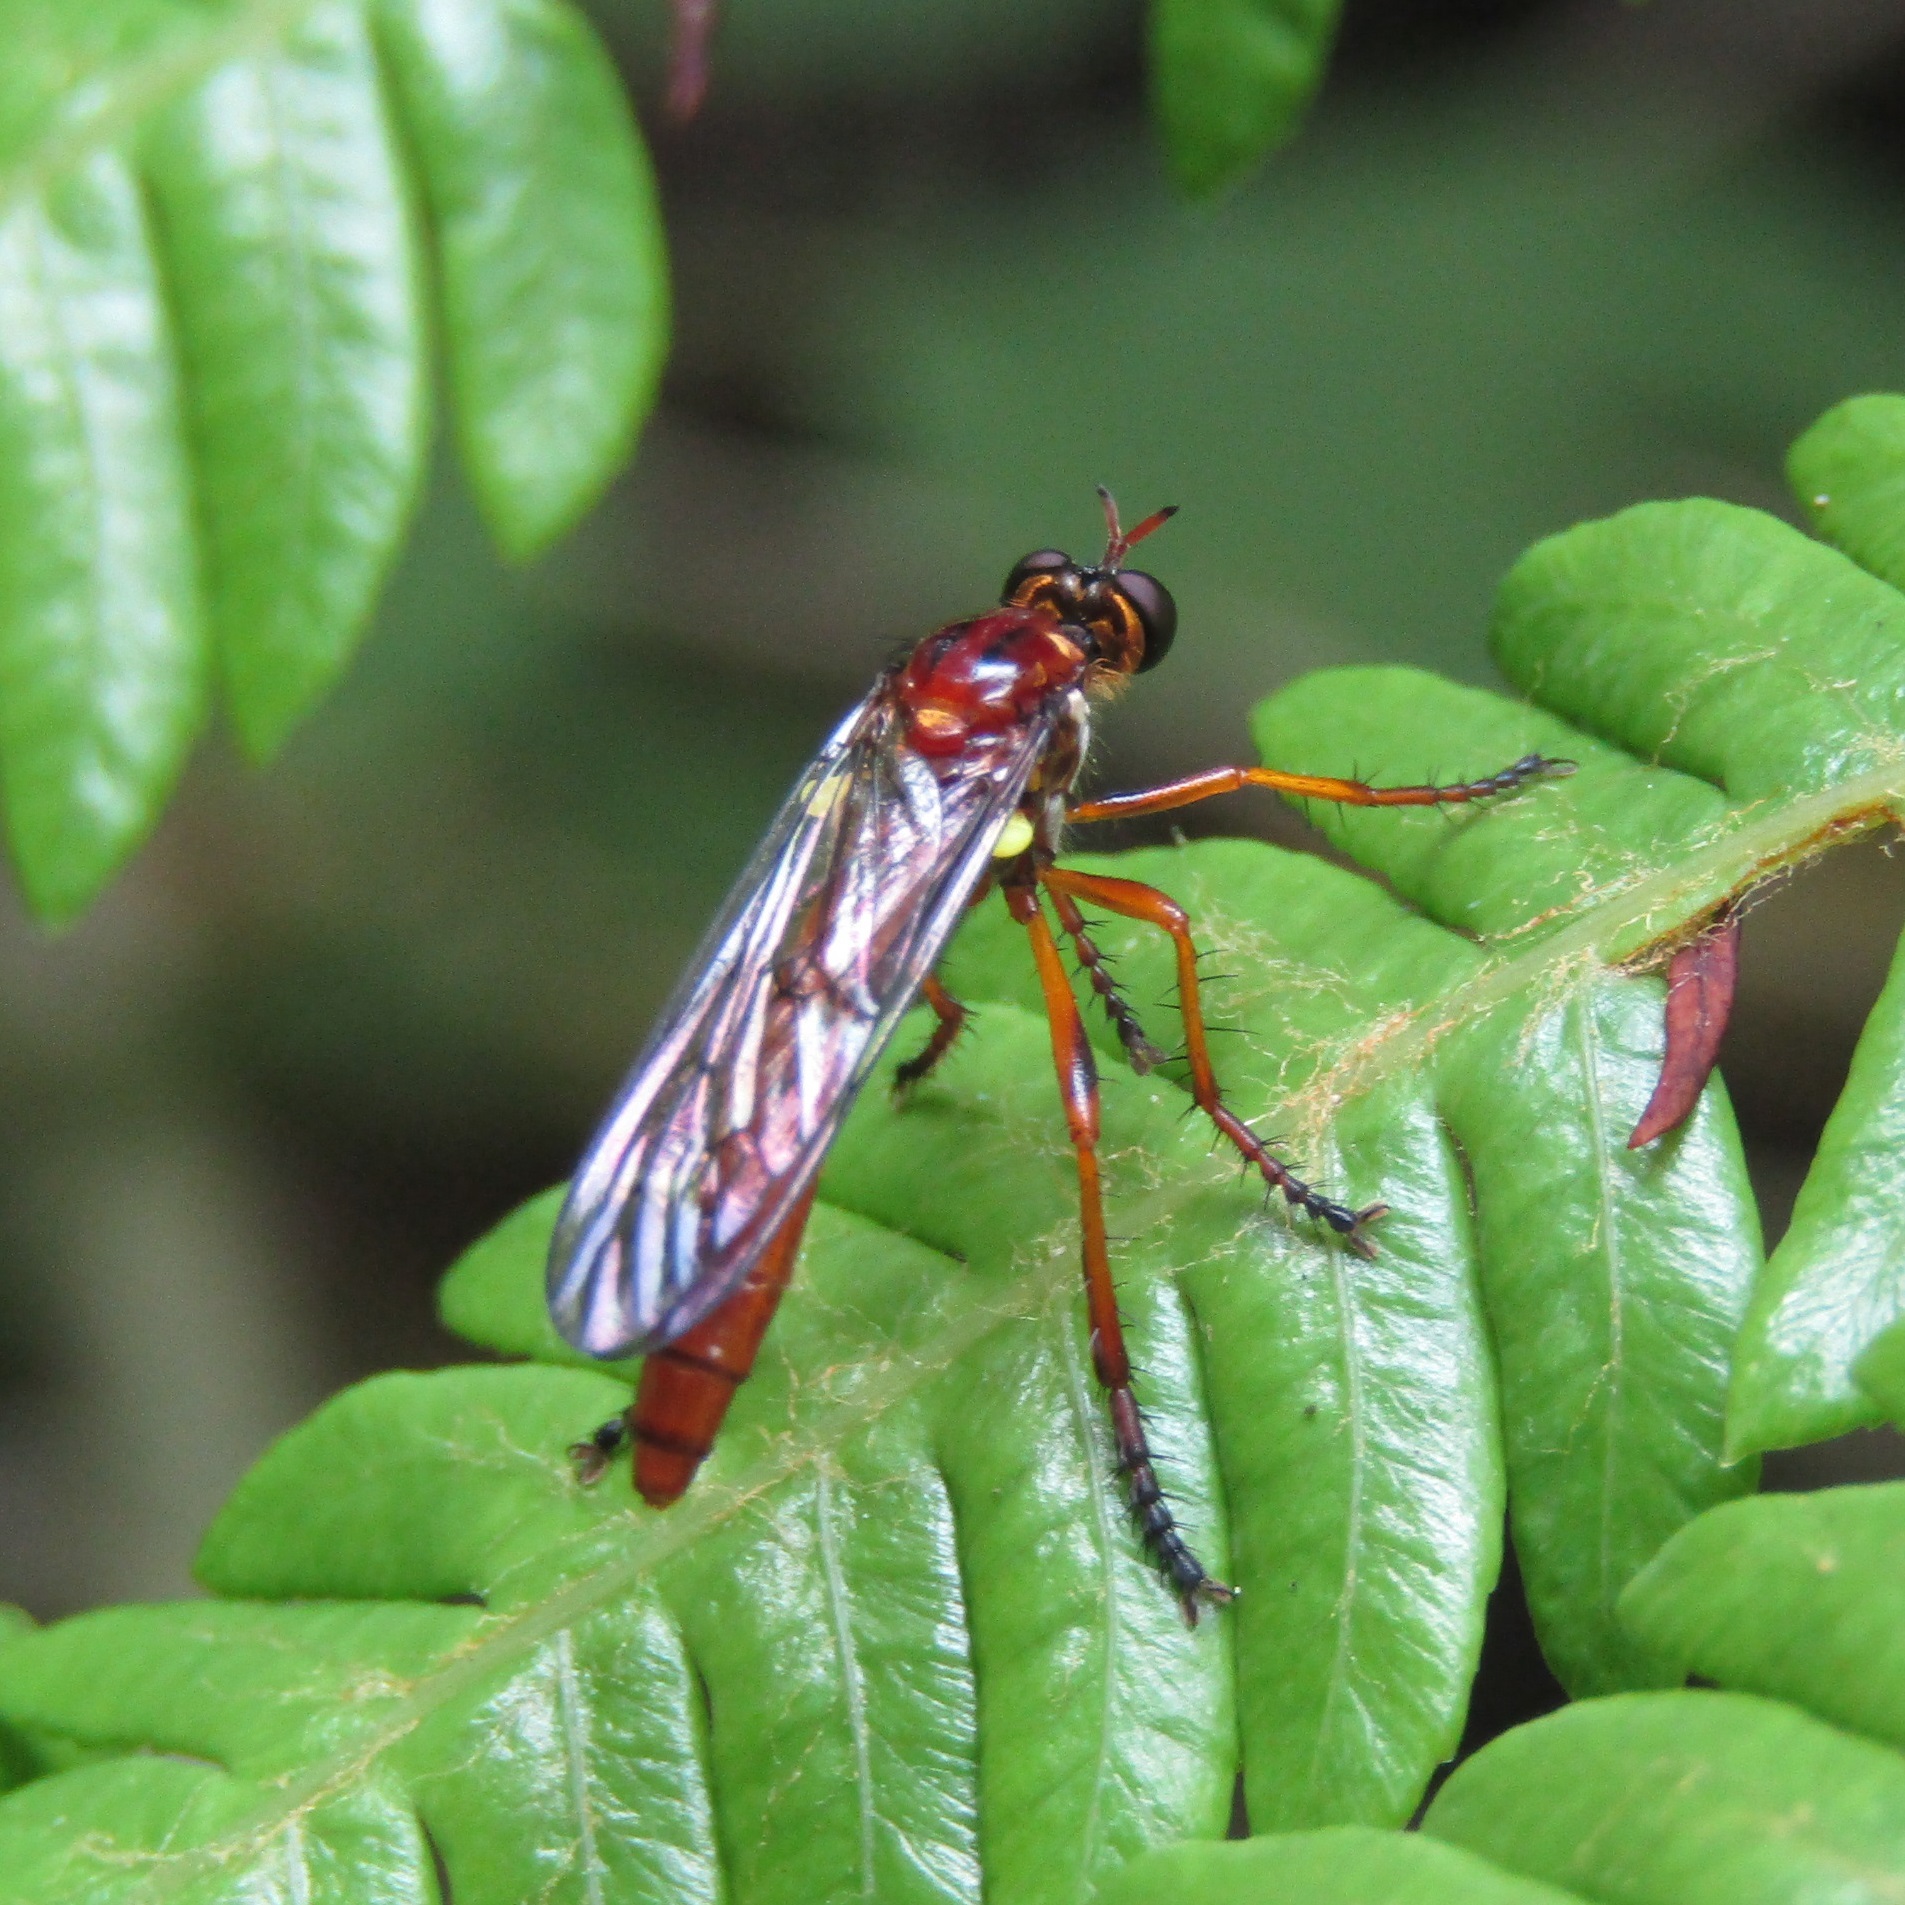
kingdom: Animalia
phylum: Arthropoda
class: Insecta
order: Diptera
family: Asilidae
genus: Saropogon
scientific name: Saropogon antipodus
